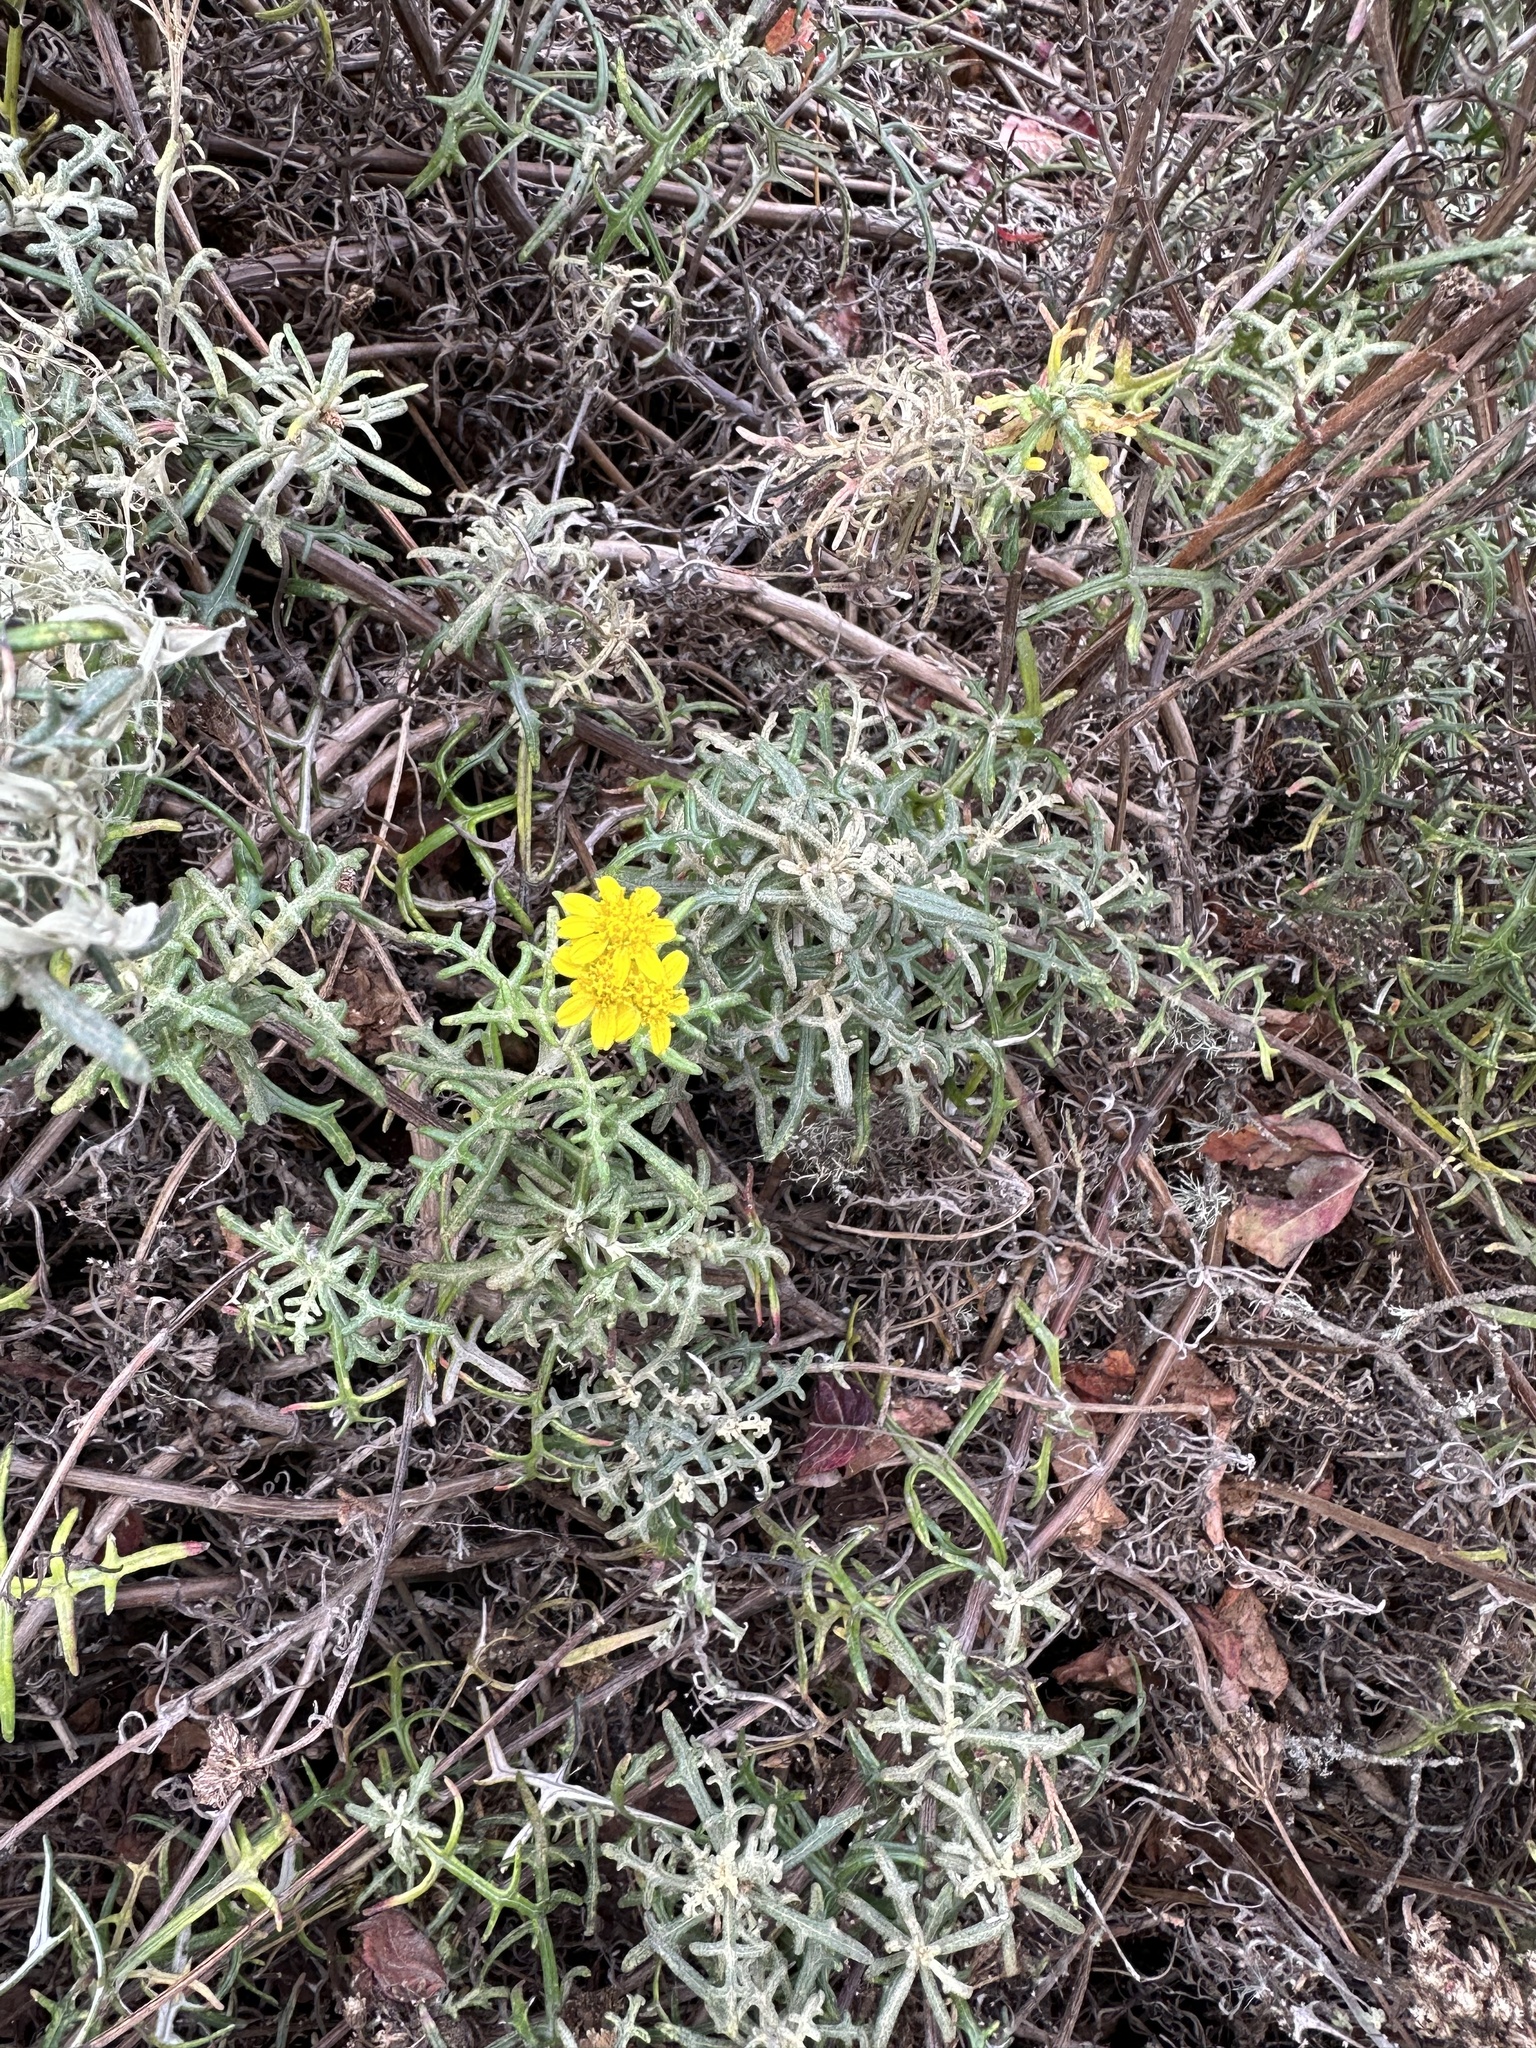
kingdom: Plantae
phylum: Tracheophyta
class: Magnoliopsida
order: Asterales
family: Asteraceae
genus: Eriophyllum
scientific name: Eriophyllum staechadifolium
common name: Lizardtail
